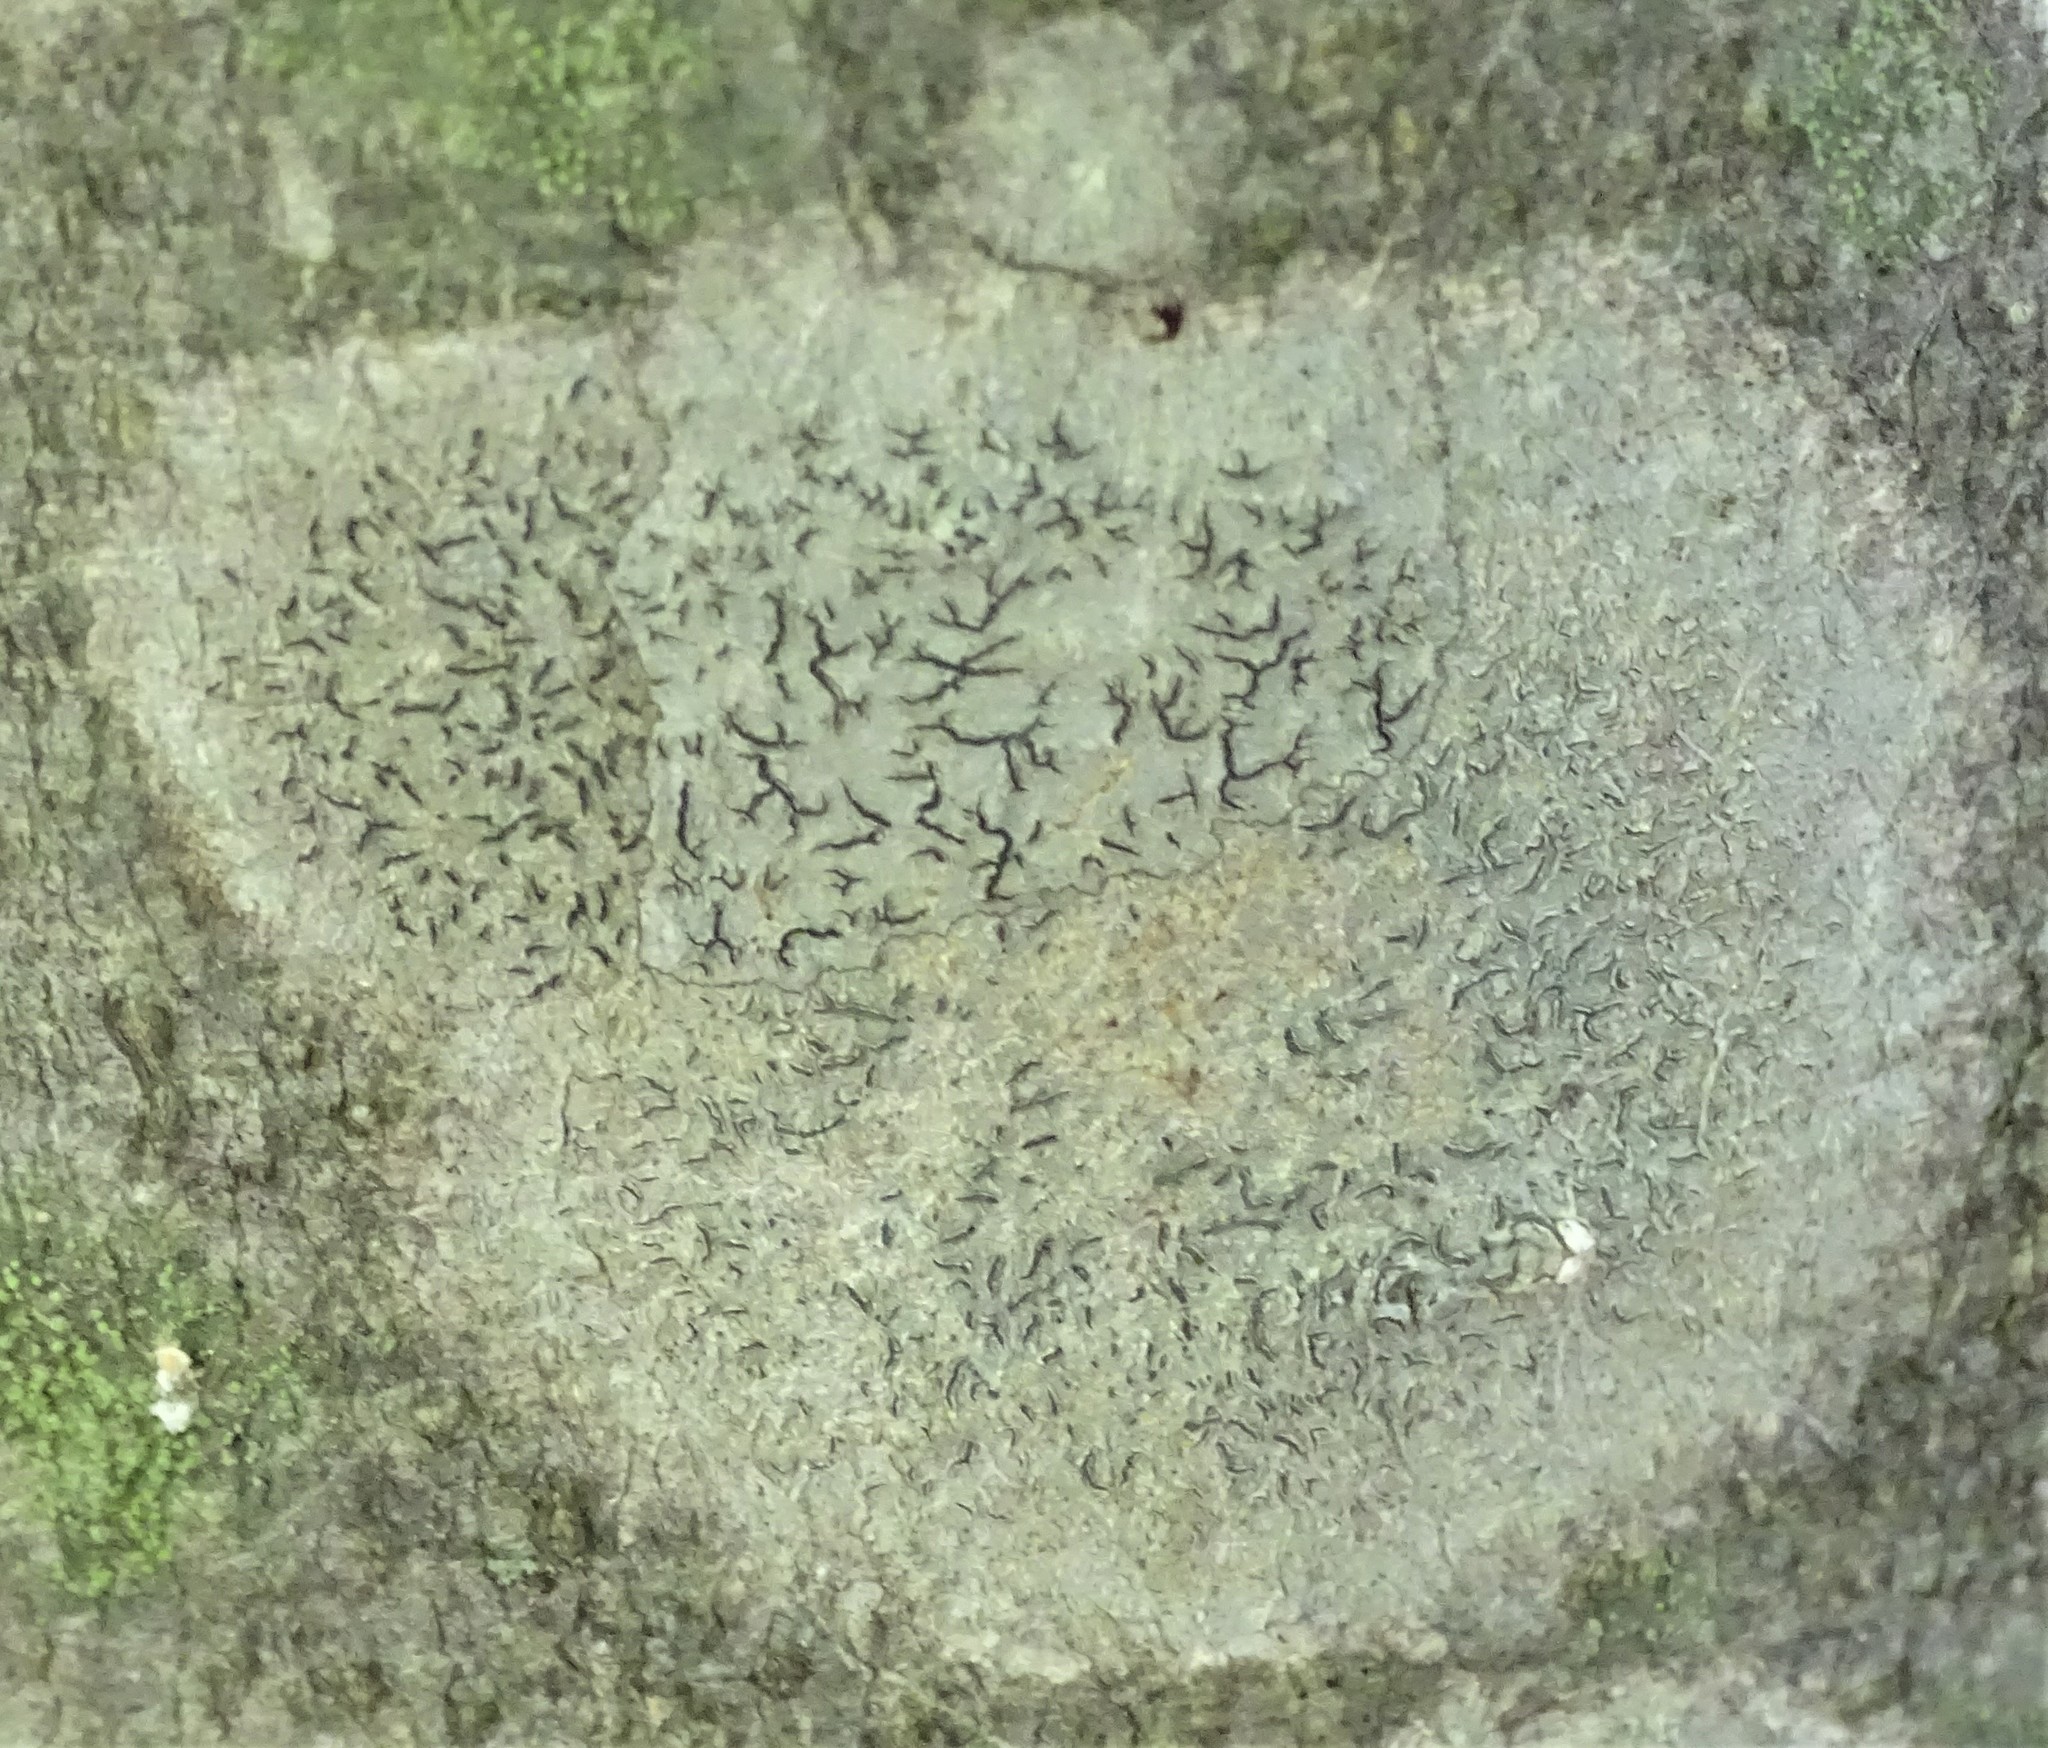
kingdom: Fungi
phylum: Ascomycota
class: Lecanoromycetes
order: Ostropales
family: Graphidaceae
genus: Graphis
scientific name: Graphis scripta
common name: Script lichen
